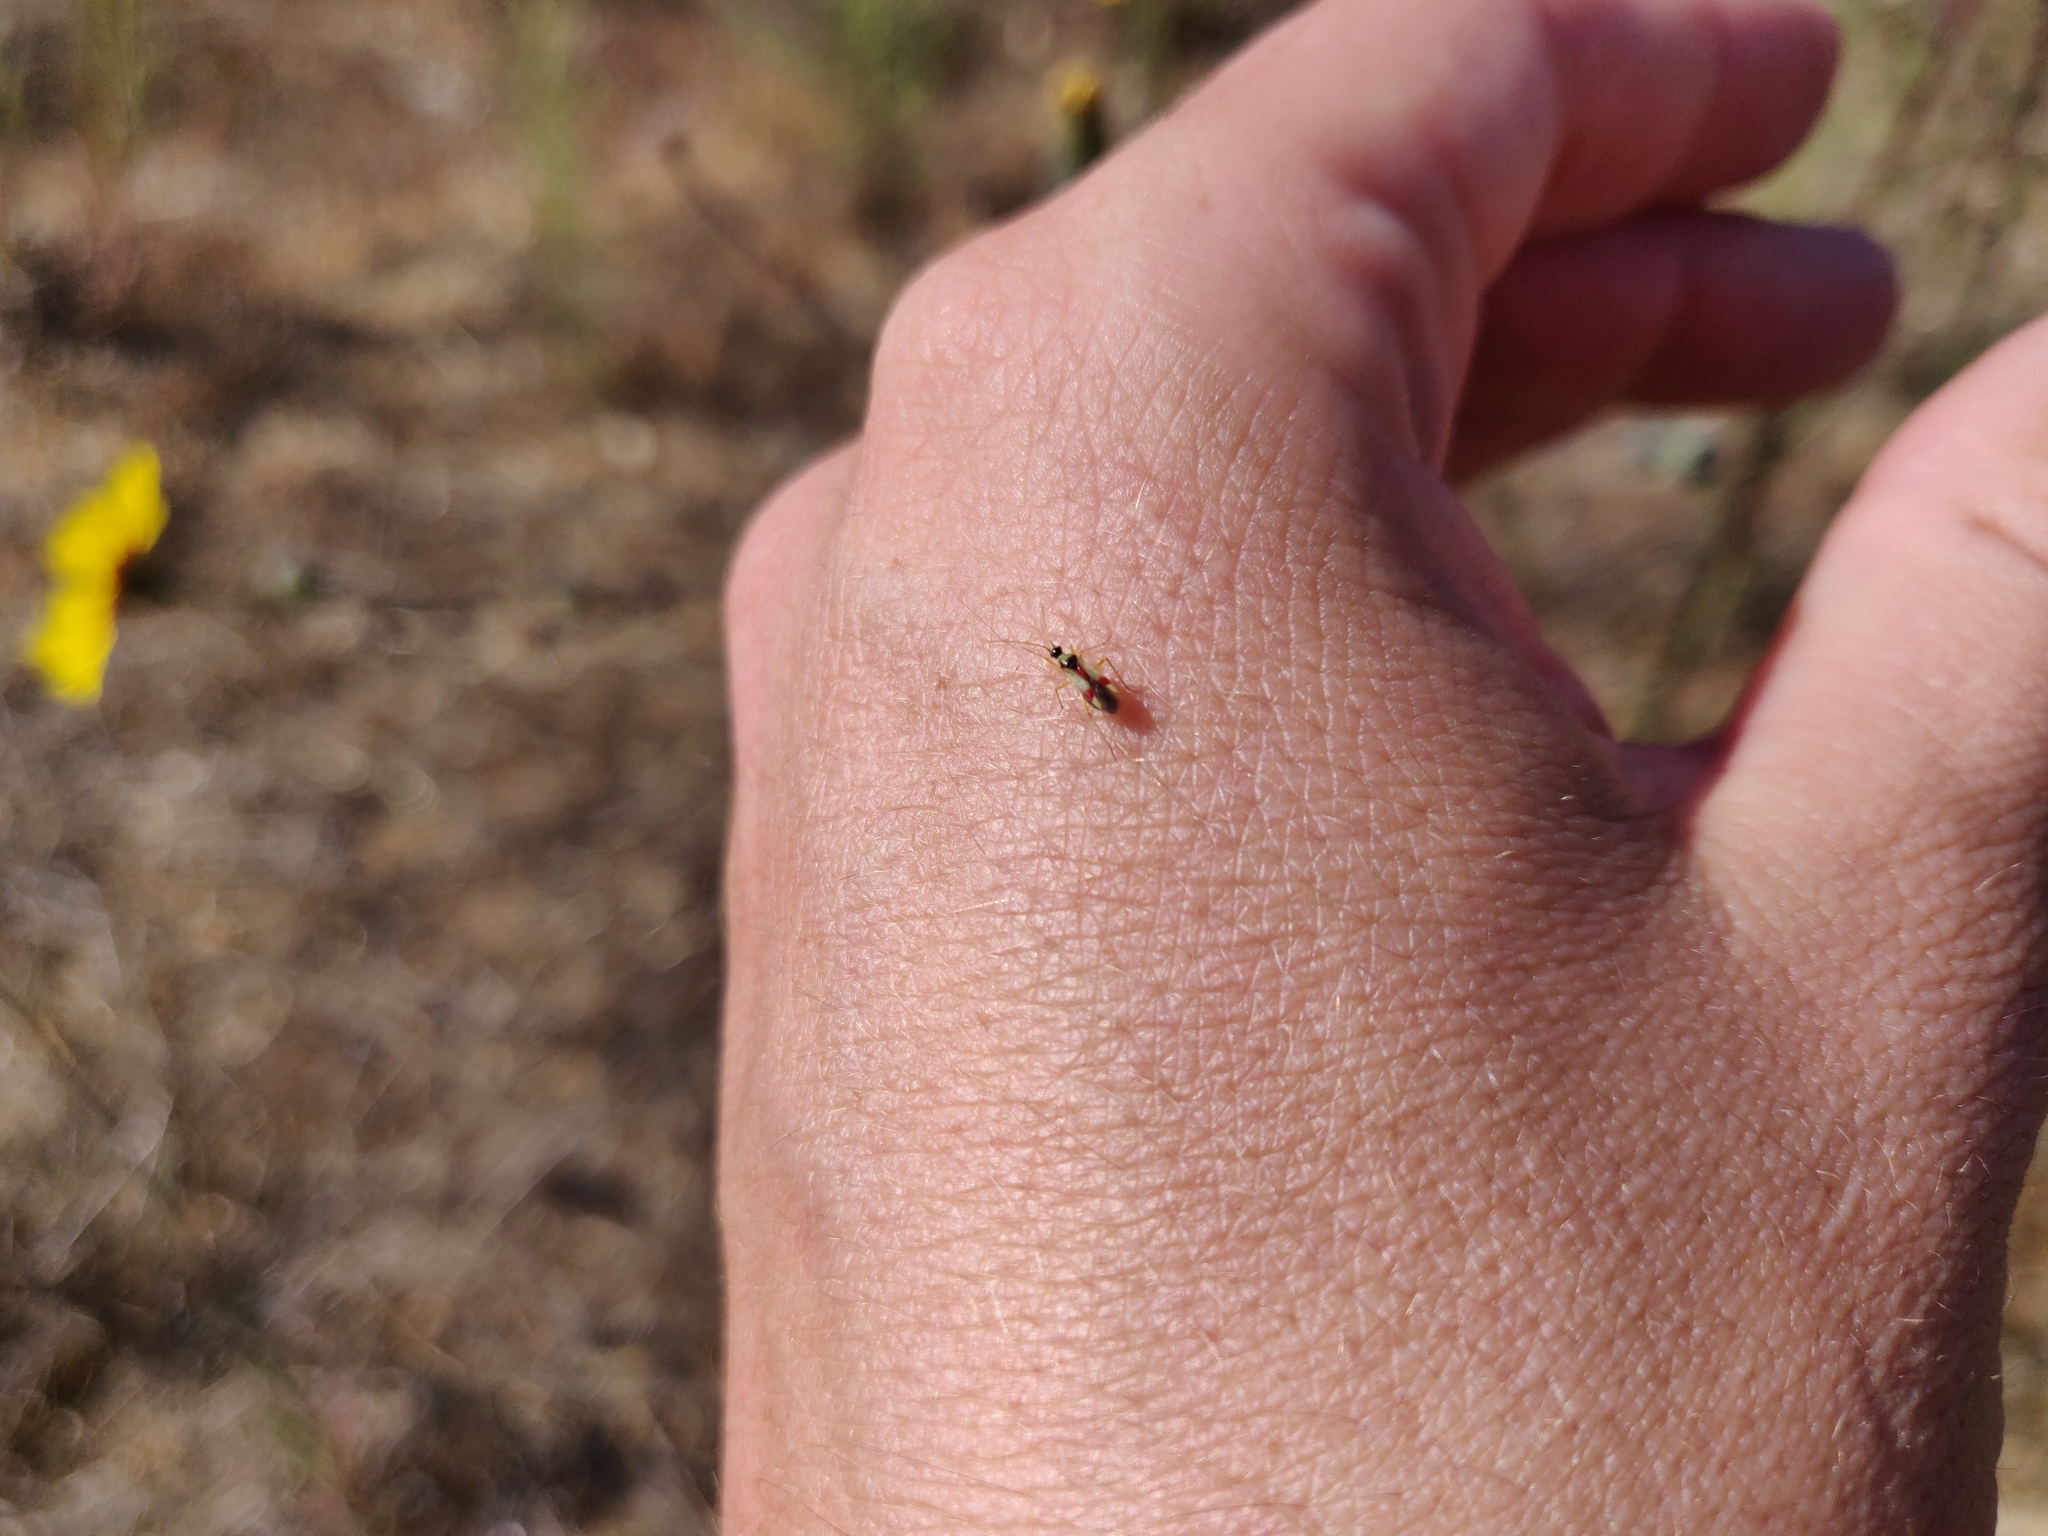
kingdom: Animalia
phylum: Arthropoda
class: Insecta
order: Hemiptera
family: Miridae
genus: Tupiocoris
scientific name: Tupiocoris californicus
